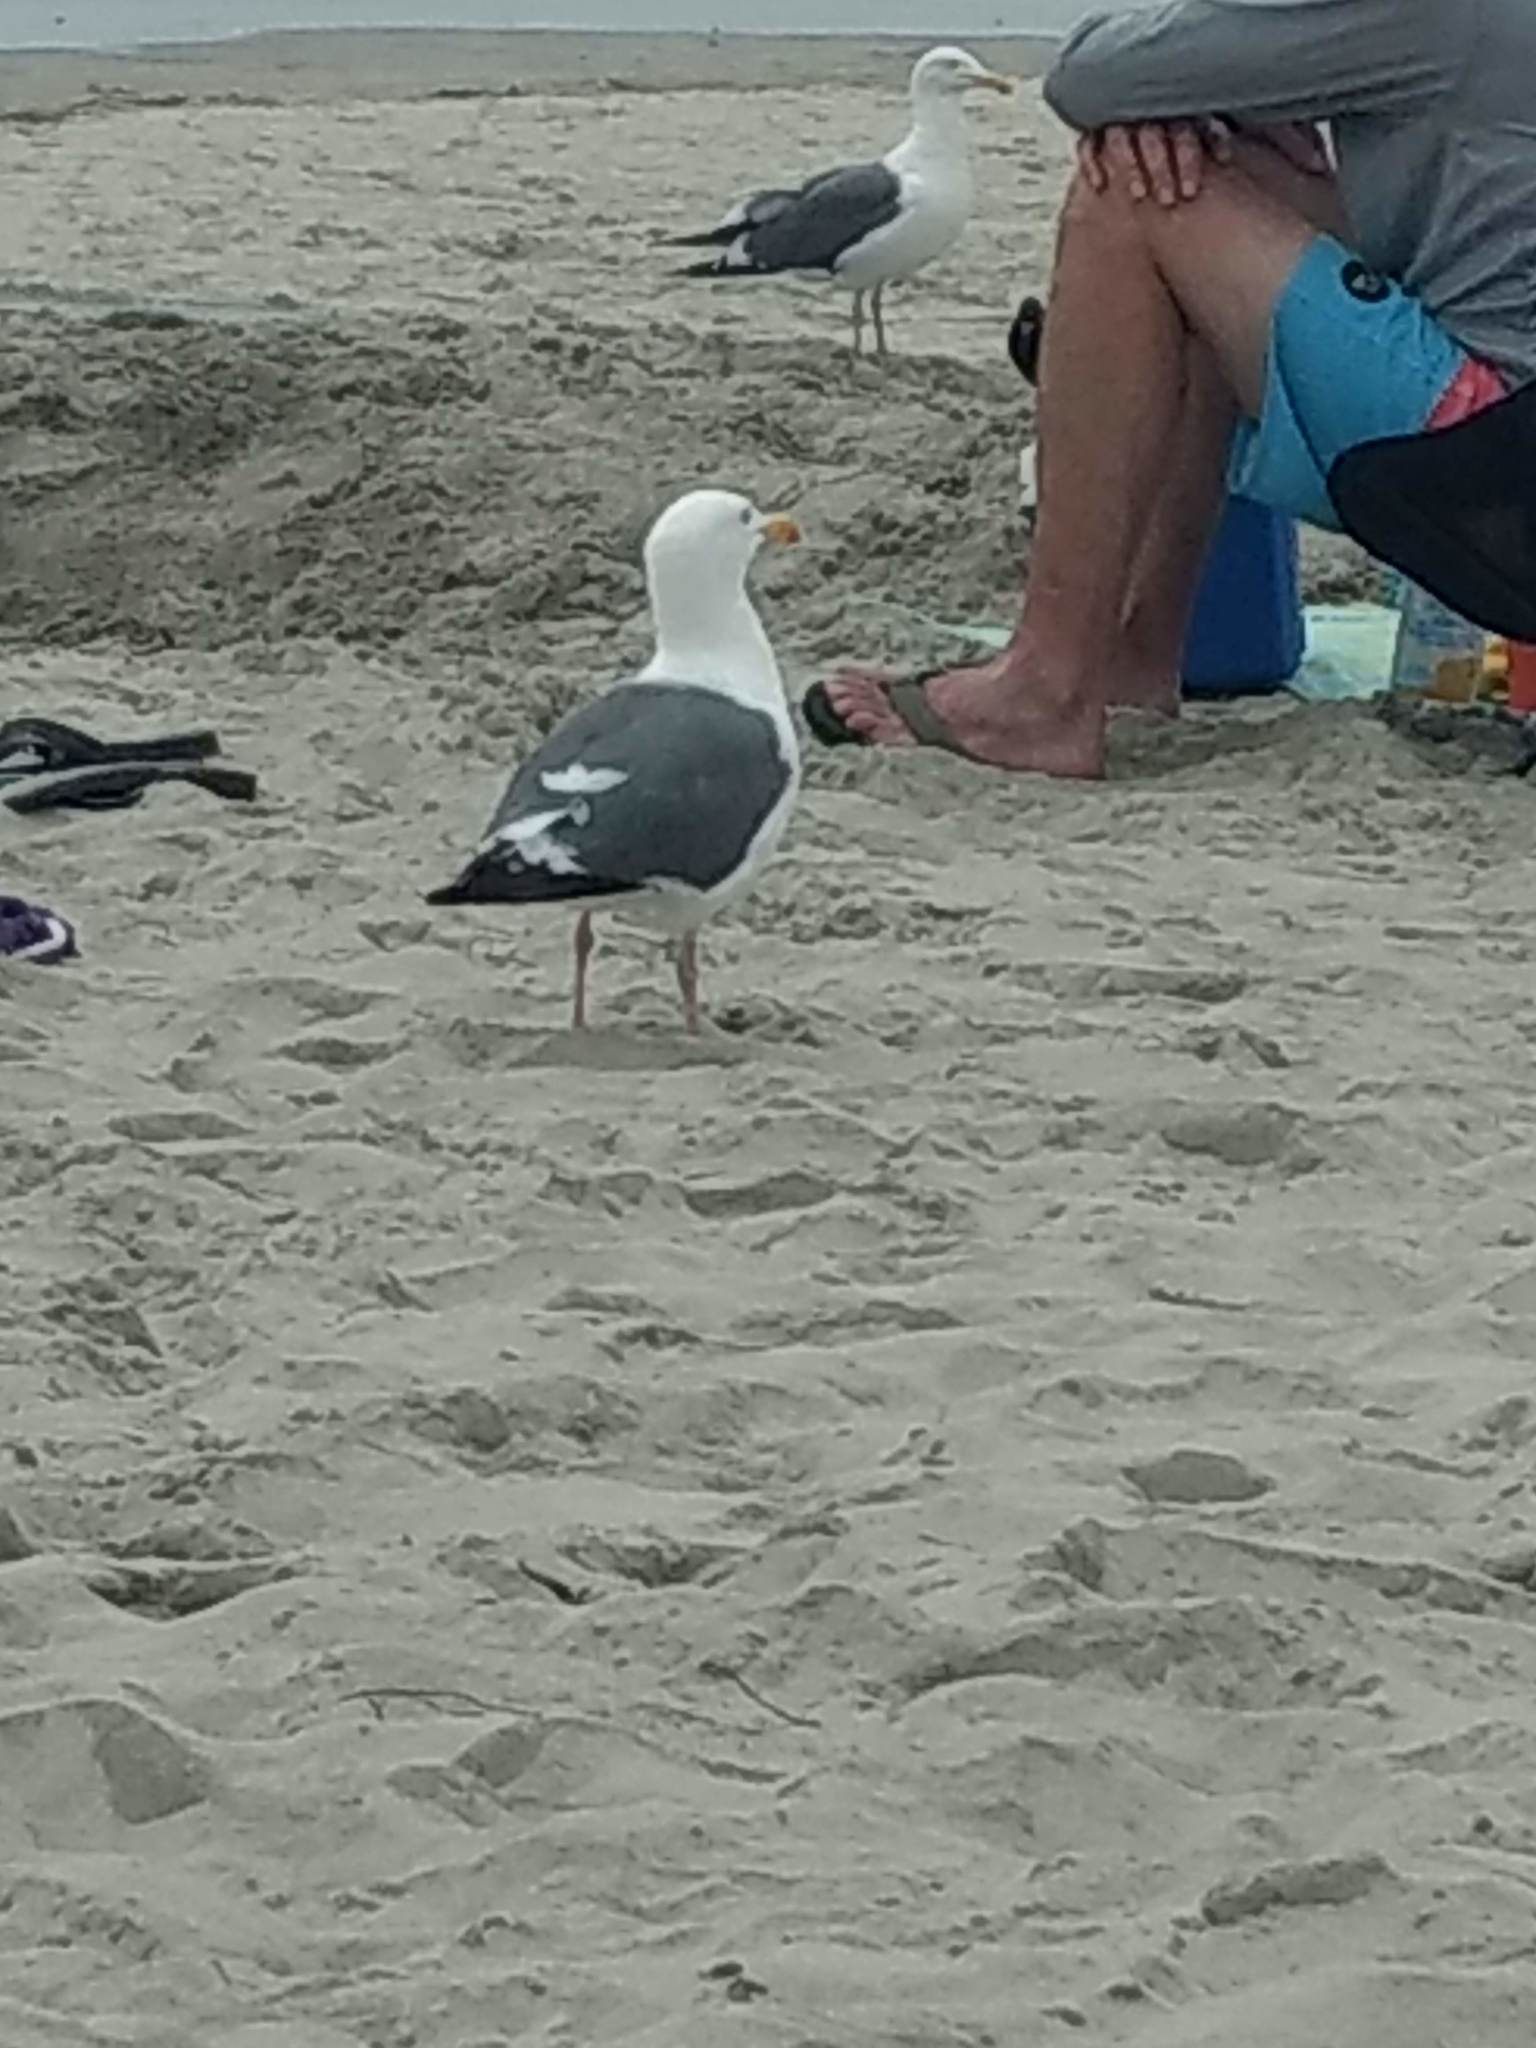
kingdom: Animalia
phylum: Chordata
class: Aves
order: Charadriiformes
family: Laridae
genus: Larus
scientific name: Larus occidentalis
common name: Western gull
